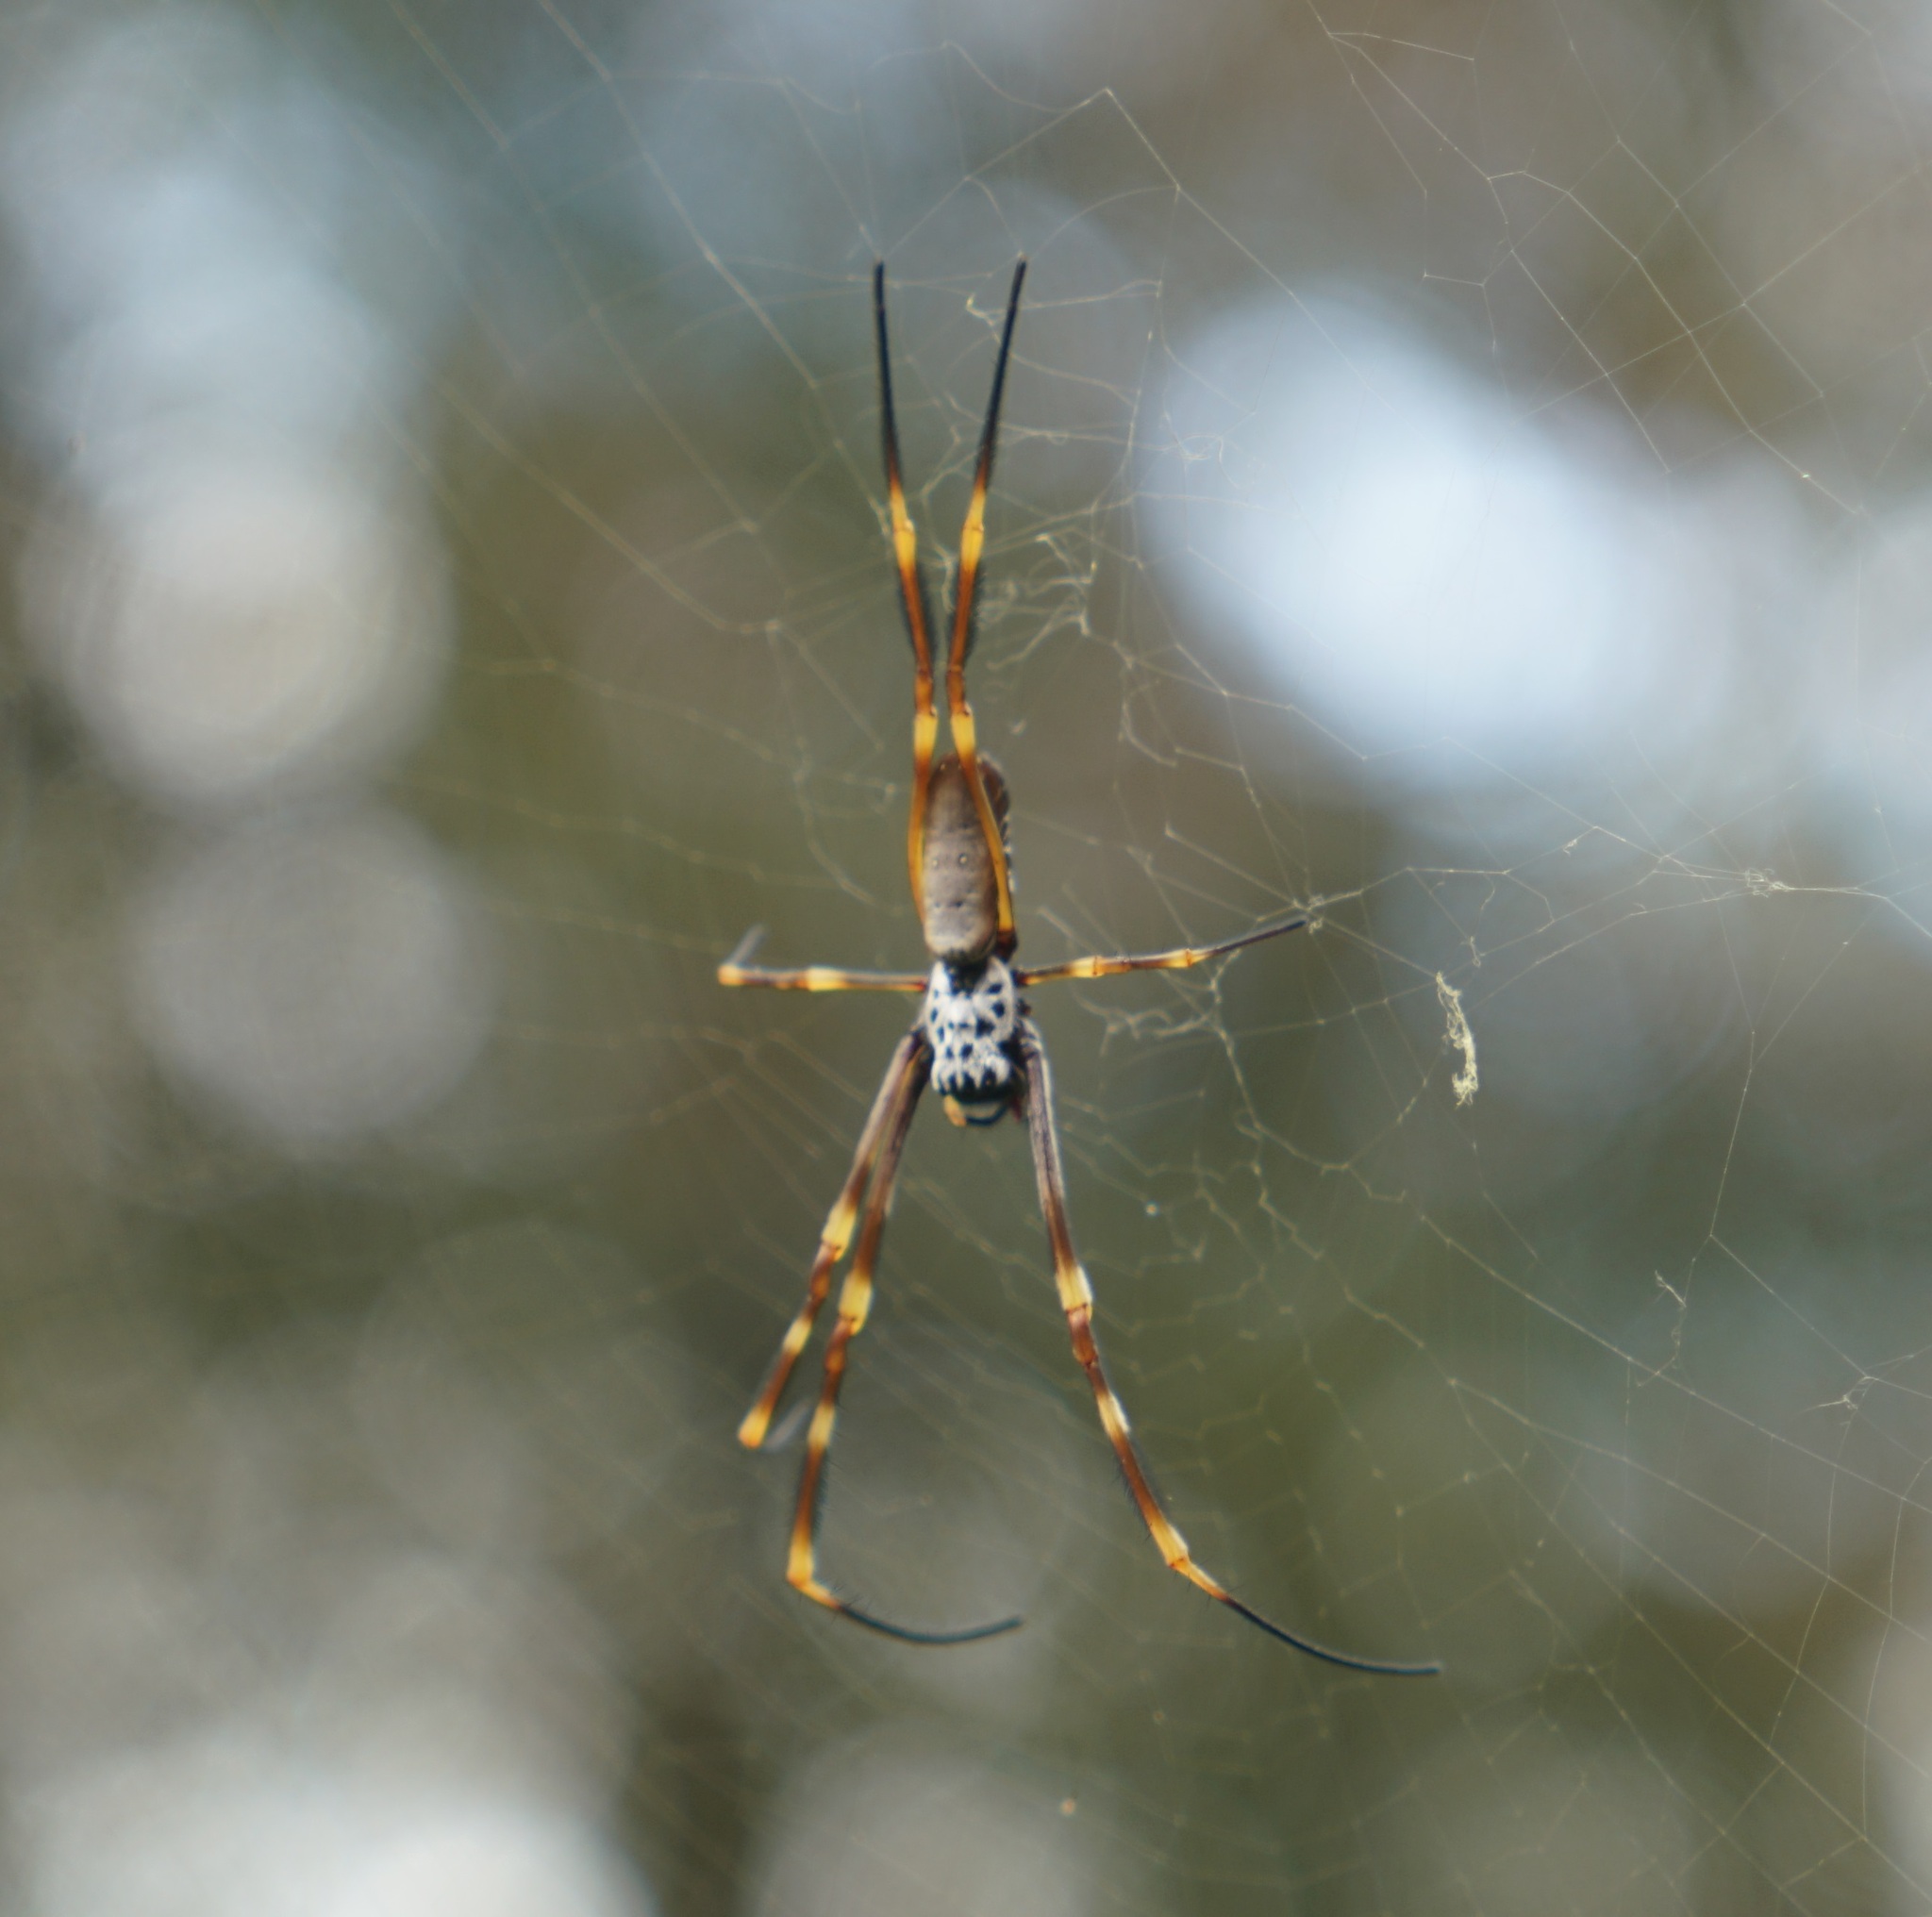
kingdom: Animalia
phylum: Arthropoda
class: Arachnida
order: Araneae
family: Araneidae
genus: Trichonephila
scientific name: Trichonephila plumipes
